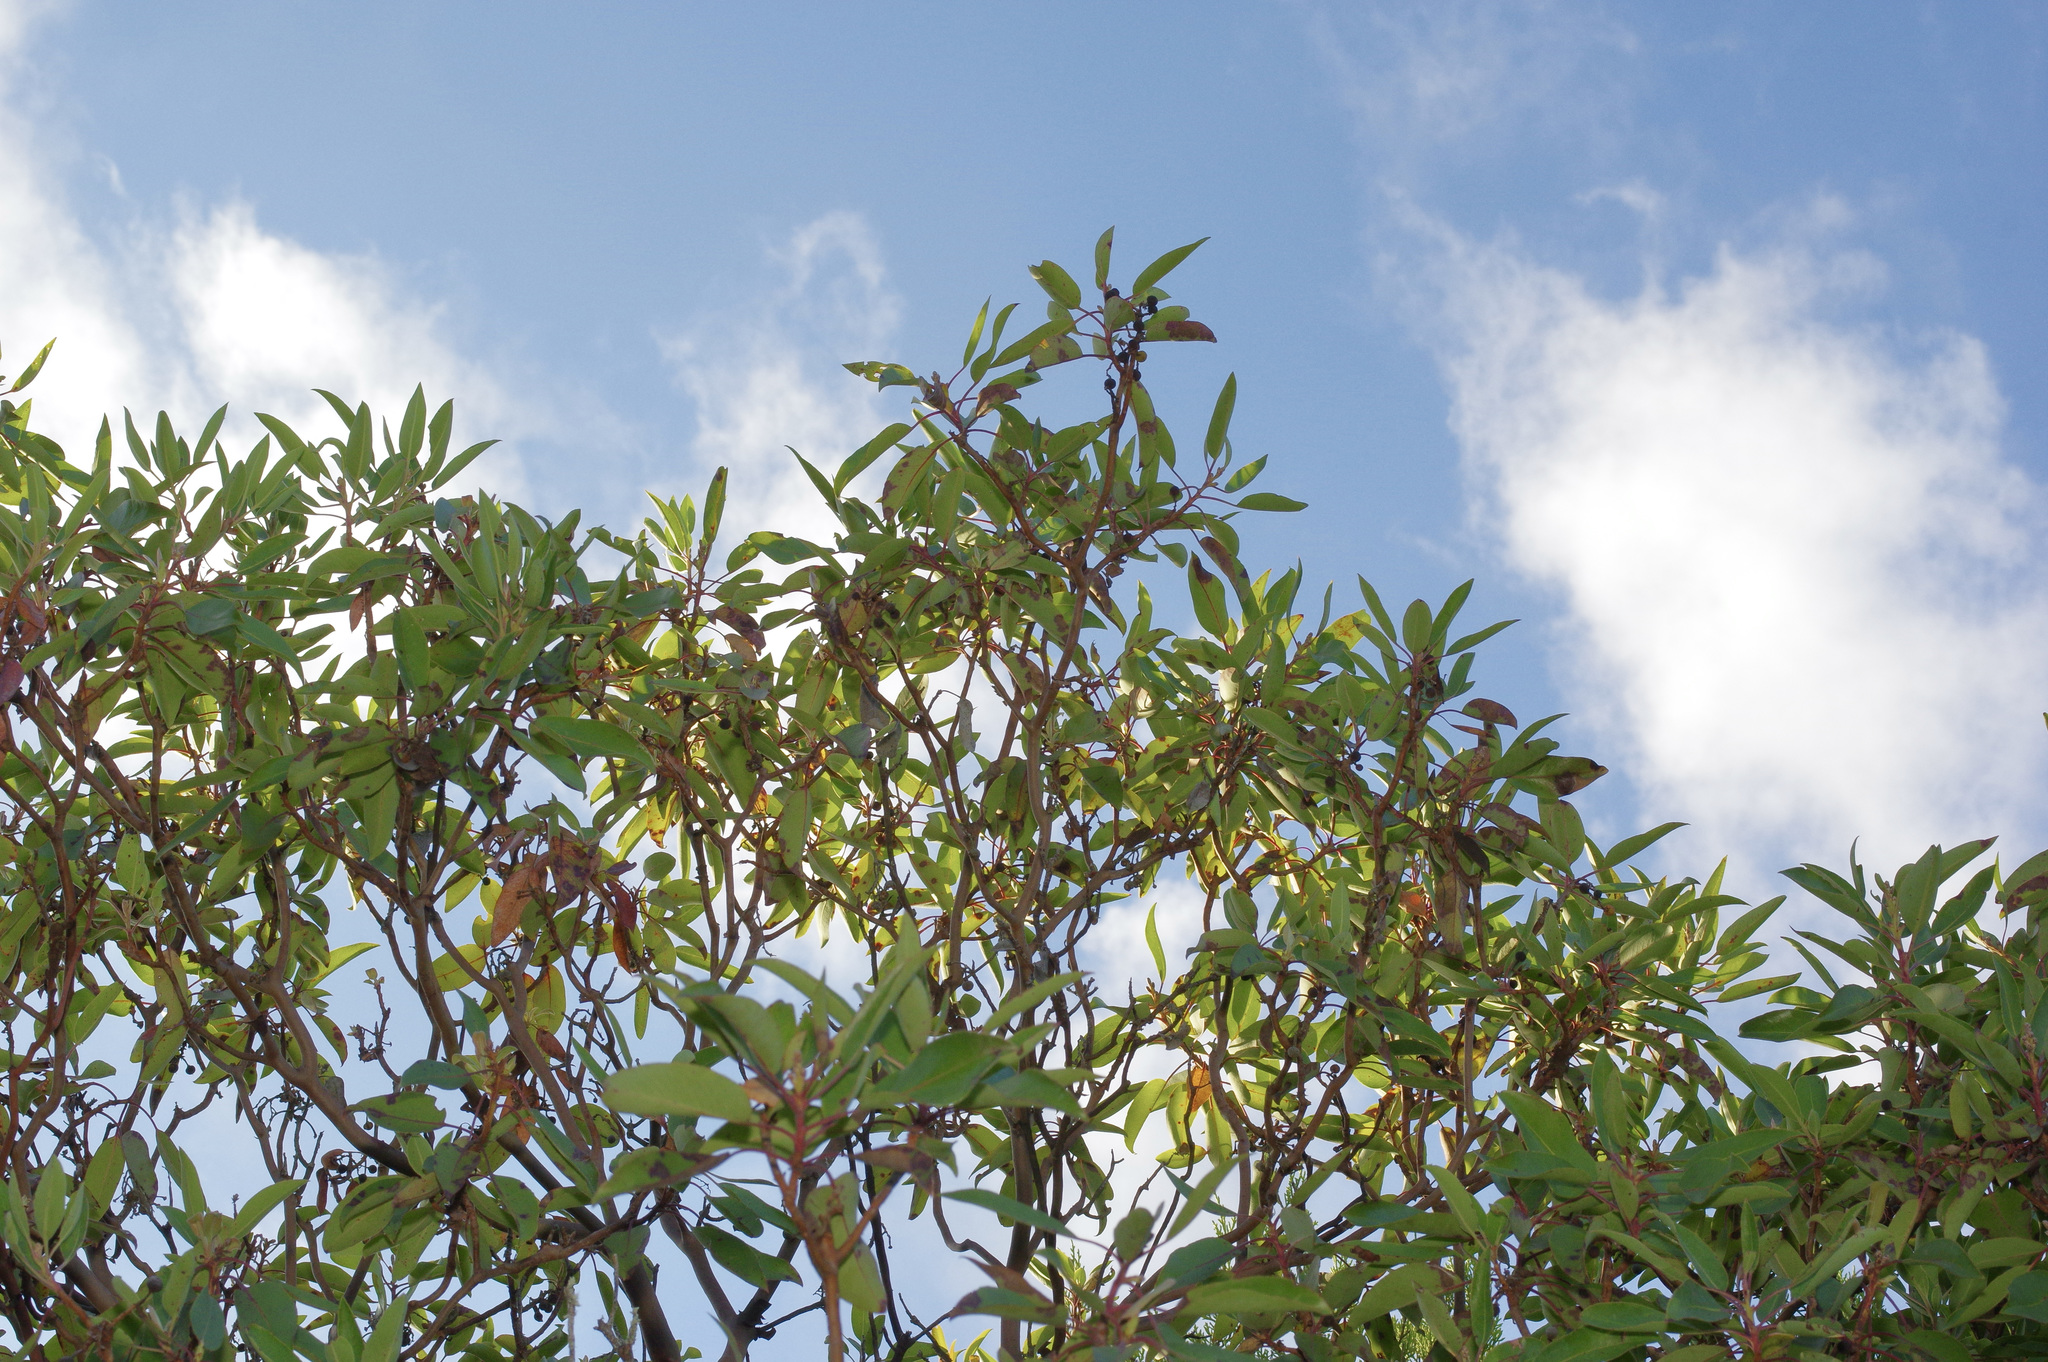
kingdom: Plantae
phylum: Tracheophyta
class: Magnoliopsida
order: Ericales
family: Ericaceae
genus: Arbutus
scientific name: Arbutus xalapensis
